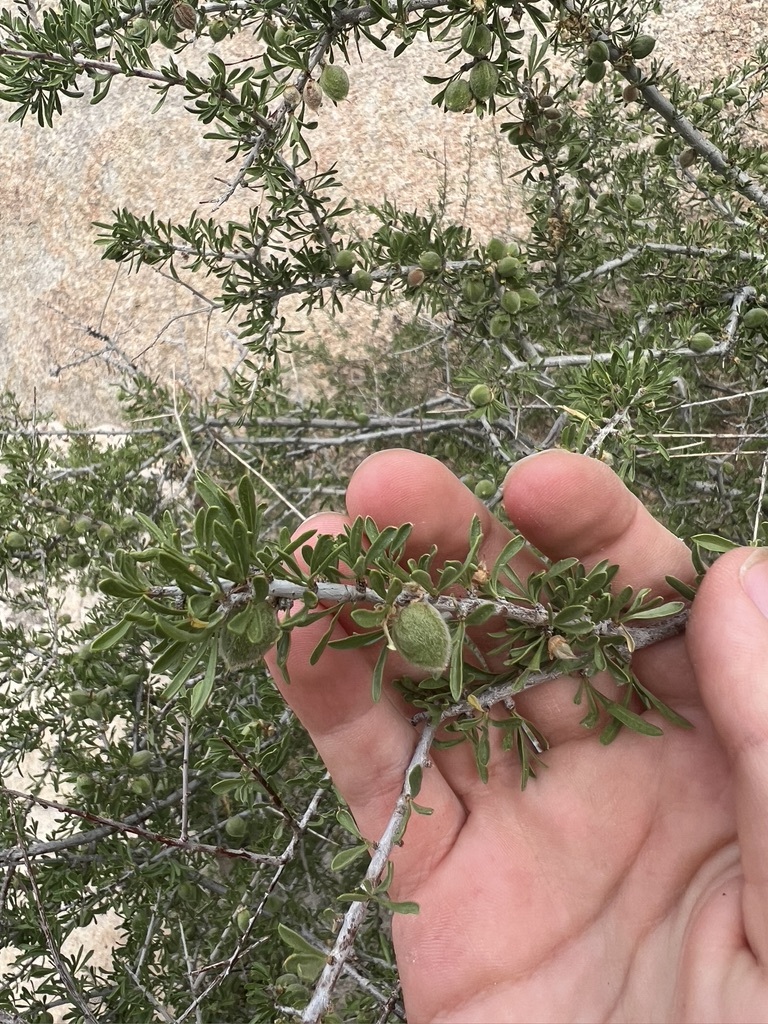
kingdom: Plantae
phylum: Tracheophyta
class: Magnoliopsida
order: Rosales
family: Rosaceae
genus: Prunus
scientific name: Prunus fasciculata
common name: Desert almond
